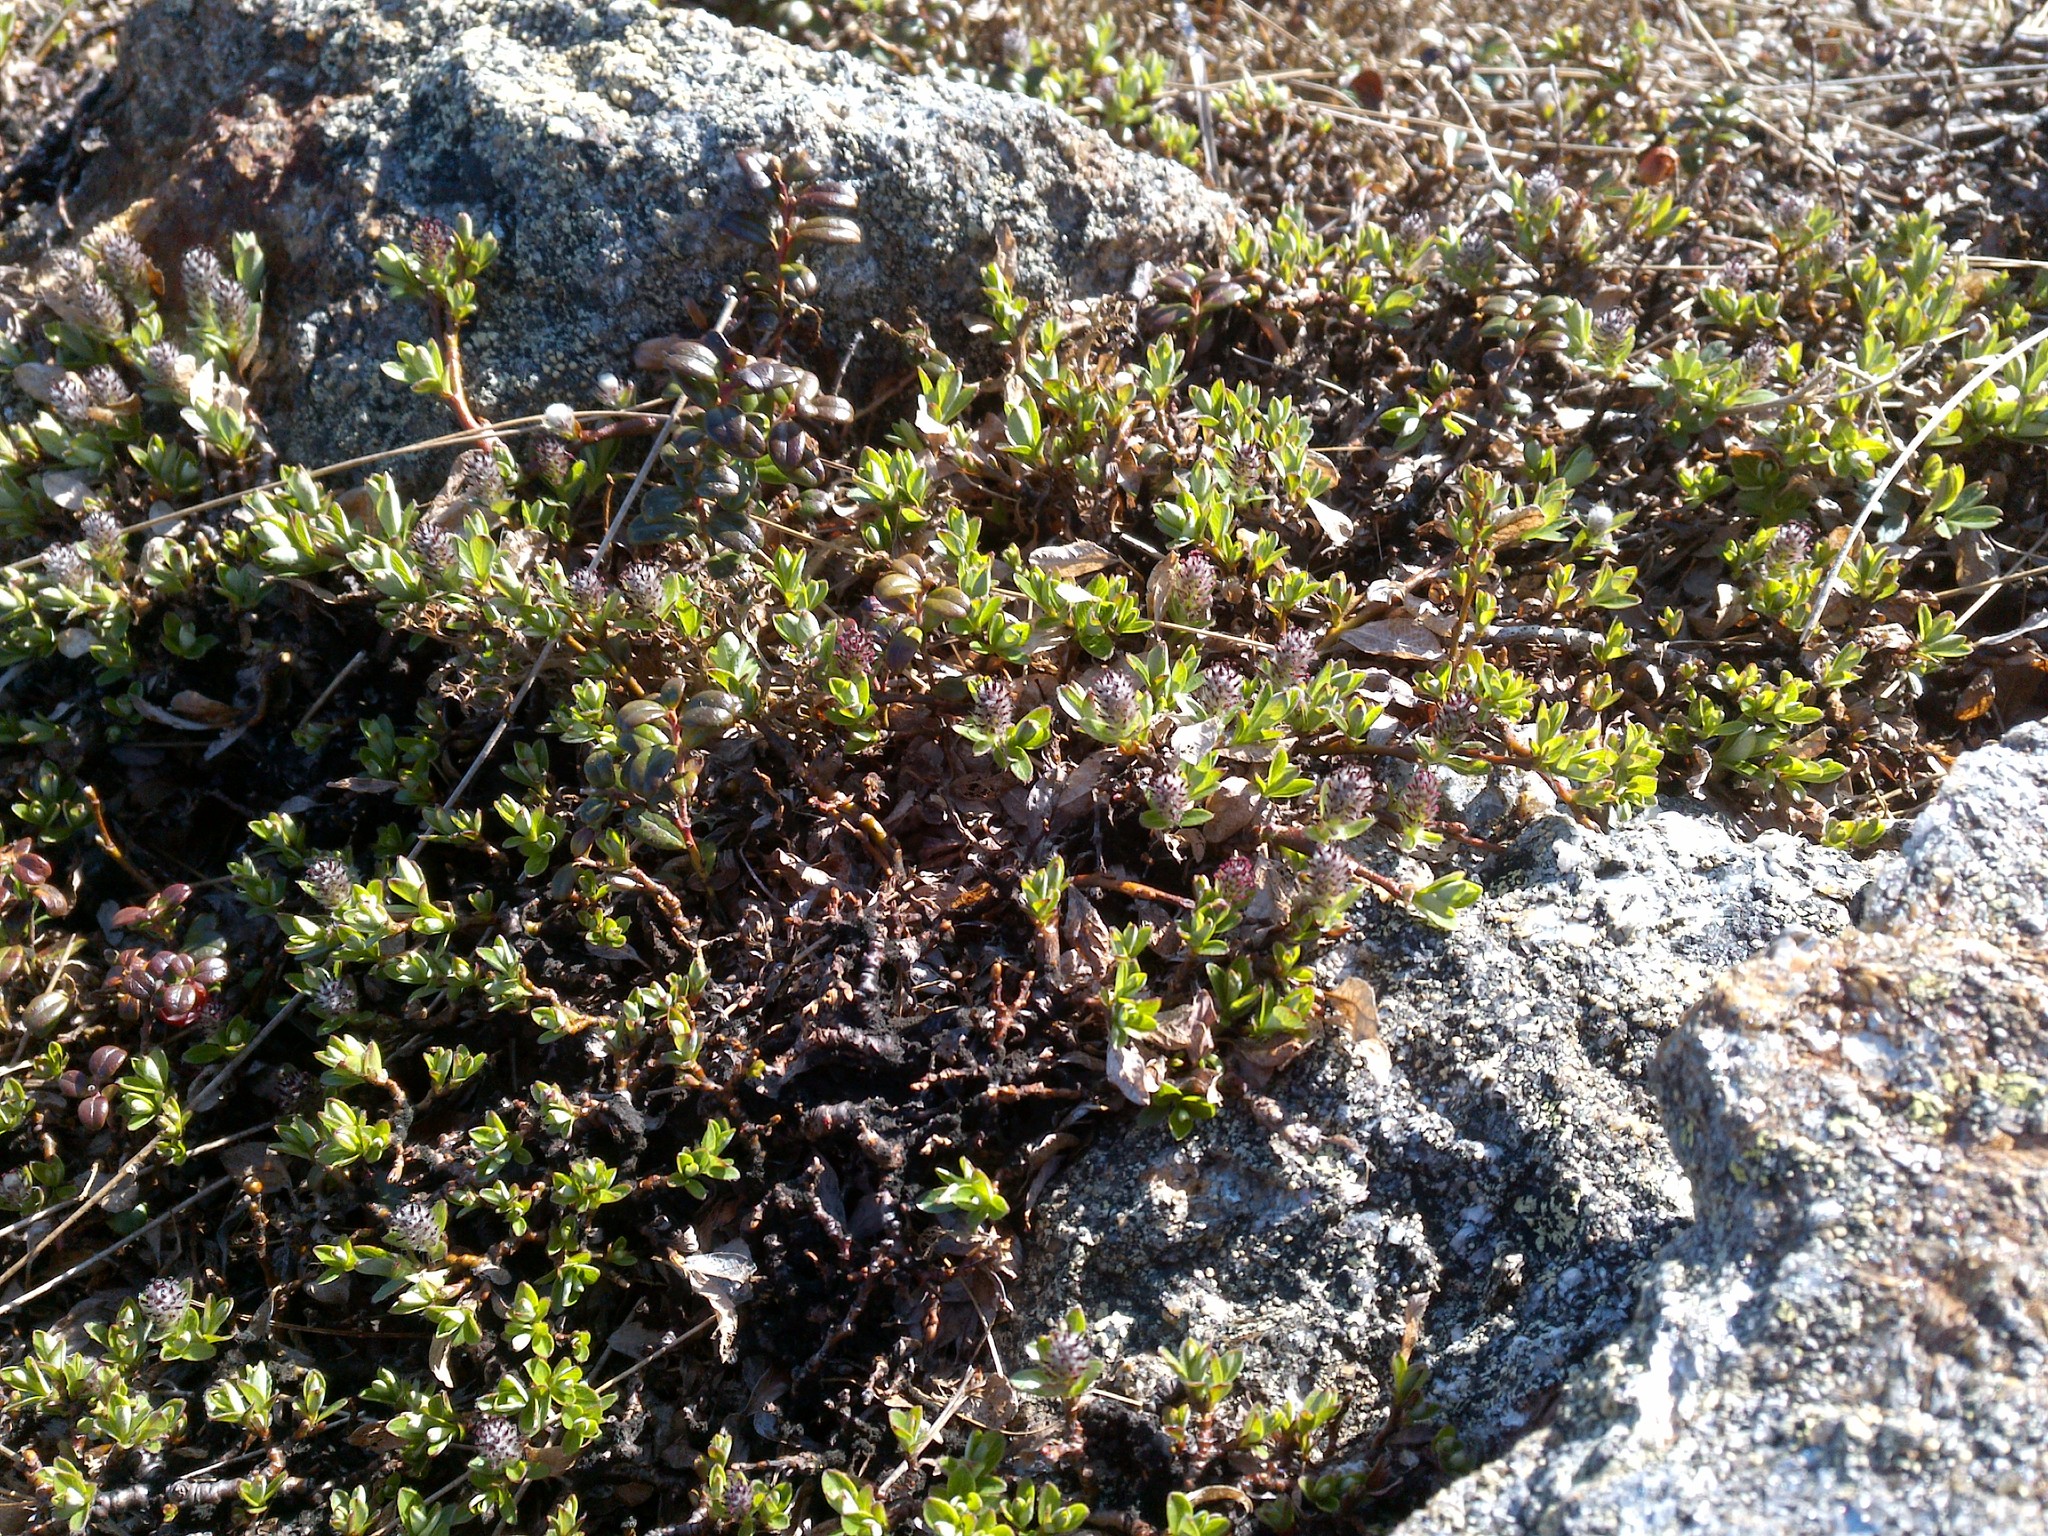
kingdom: Plantae
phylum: Tracheophyta
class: Magnoliopsida
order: Malpighiales
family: Salicaceae
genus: Salix
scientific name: Salix uva-ursi
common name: Bearberry willow
